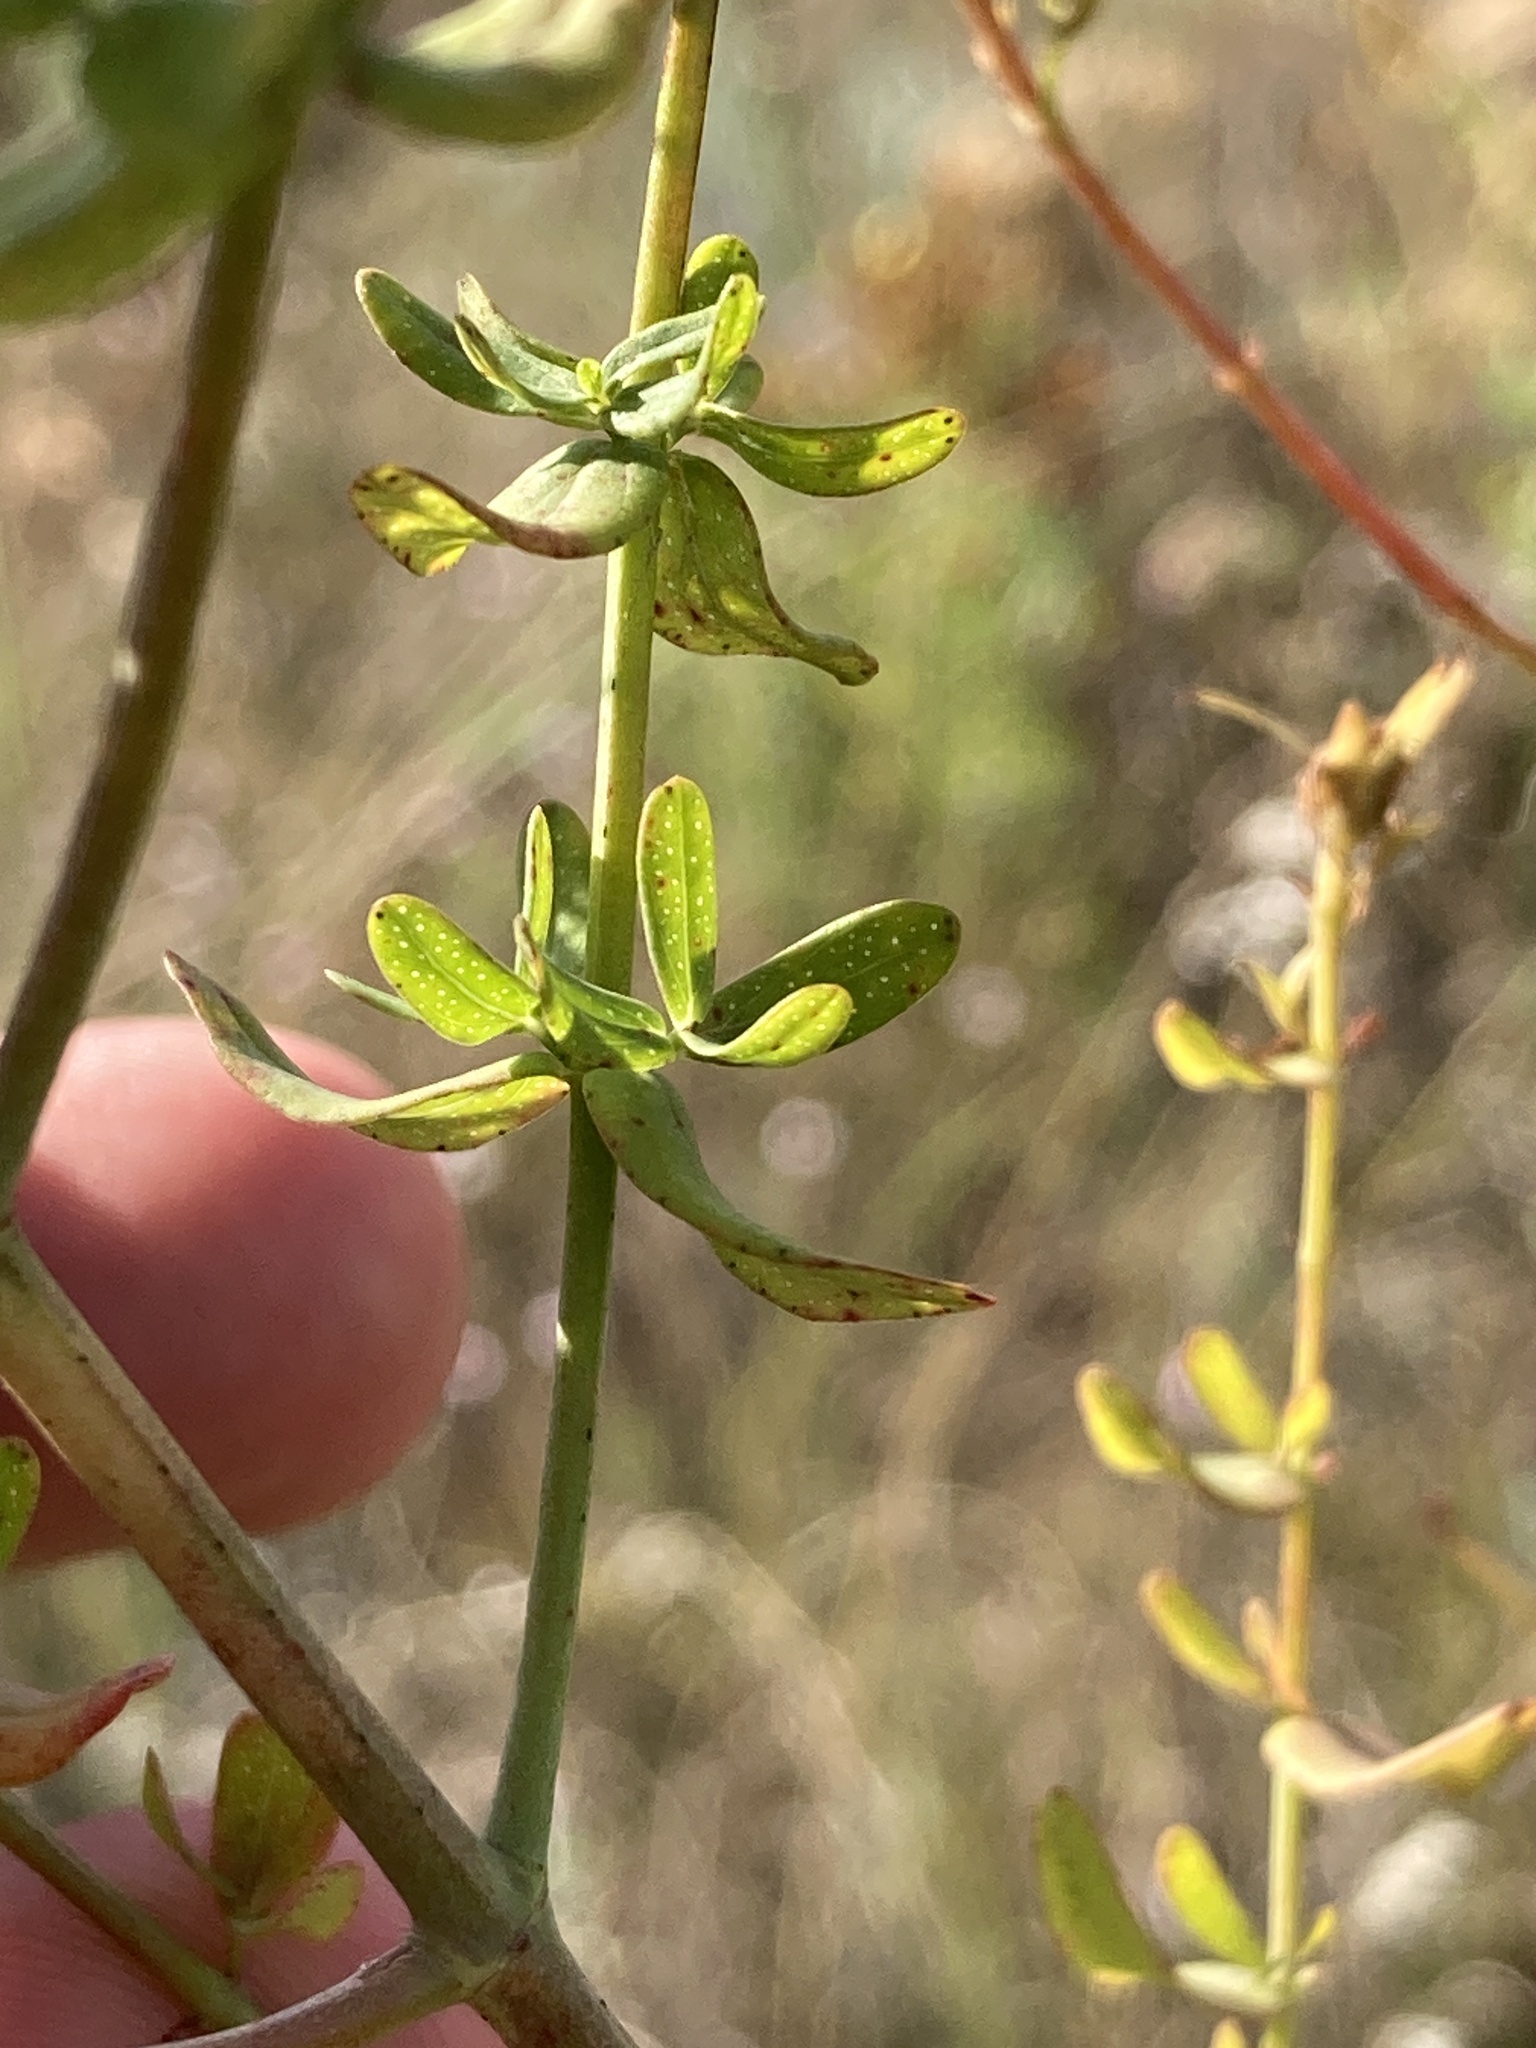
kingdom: Plantae
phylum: Tracheophyta
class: Magnoliopsida
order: Malpighiales
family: Hypericaceae
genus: Hypericum
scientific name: Hypericum perforatum
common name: Common st. johnswort
